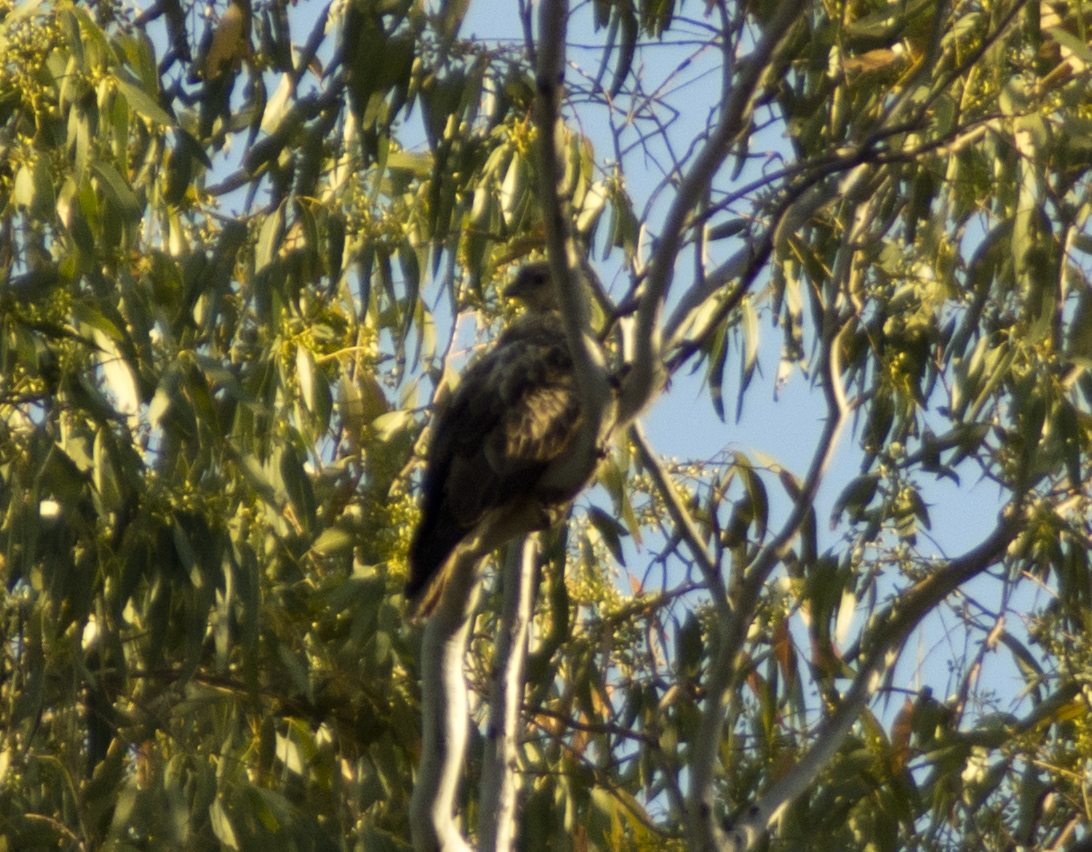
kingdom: Animalia
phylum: Chordata
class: Aves
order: Accipitriformes
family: Accipitridae
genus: Haliastur
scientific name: Haliastur sphenurus
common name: Whistling kite
